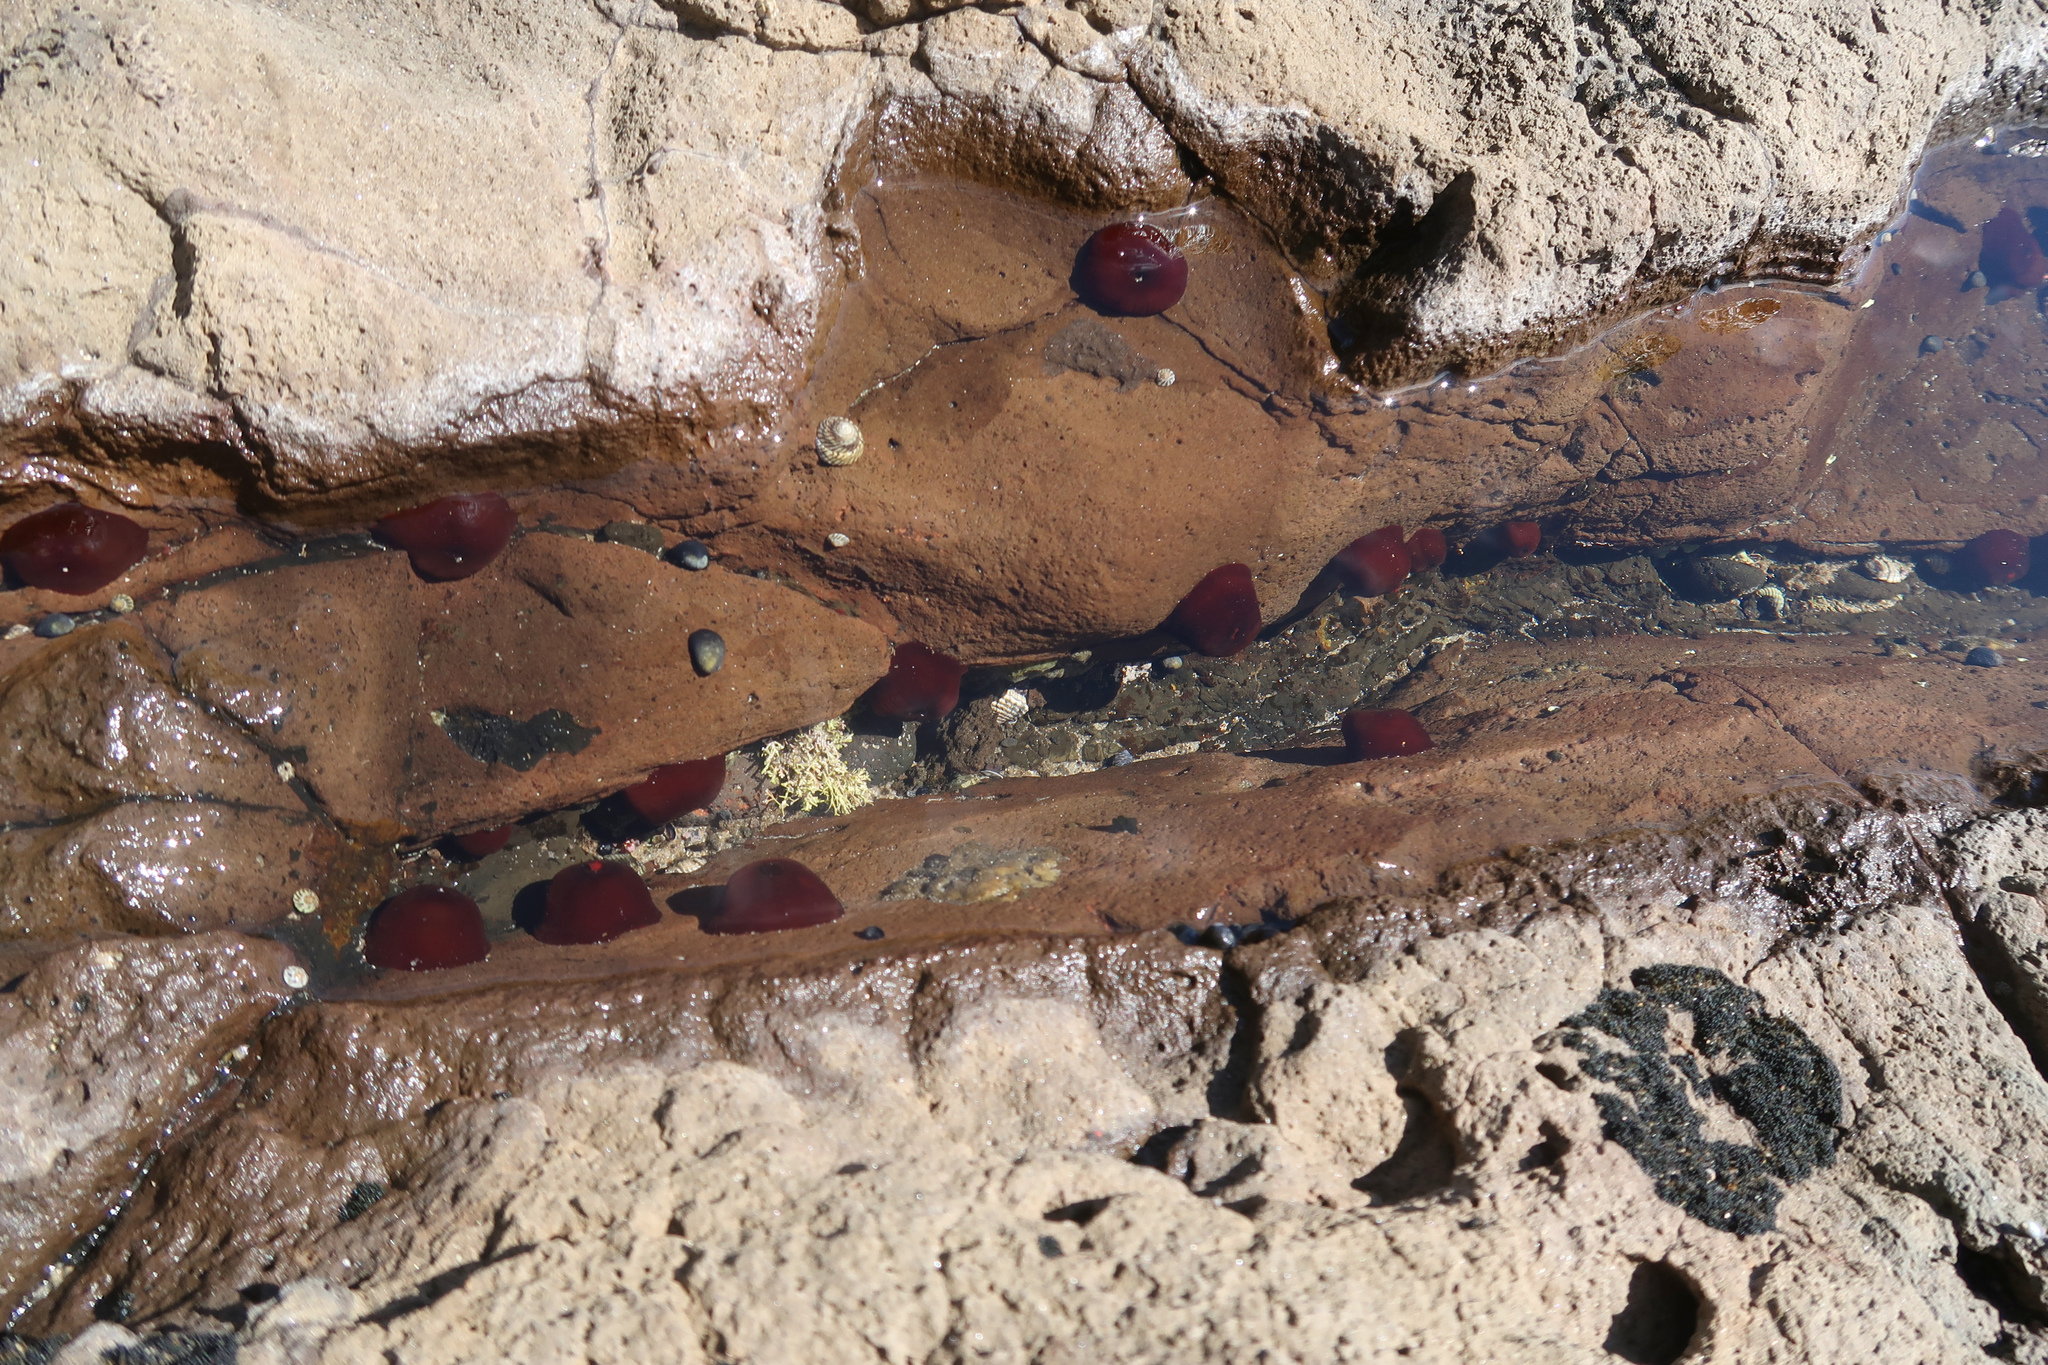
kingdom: Animalia
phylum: Cnidaria
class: Anthozoa
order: Actiniaria
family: Actiniidae
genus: Actinia
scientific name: Actinia tenebrosa
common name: Waratah anemone
